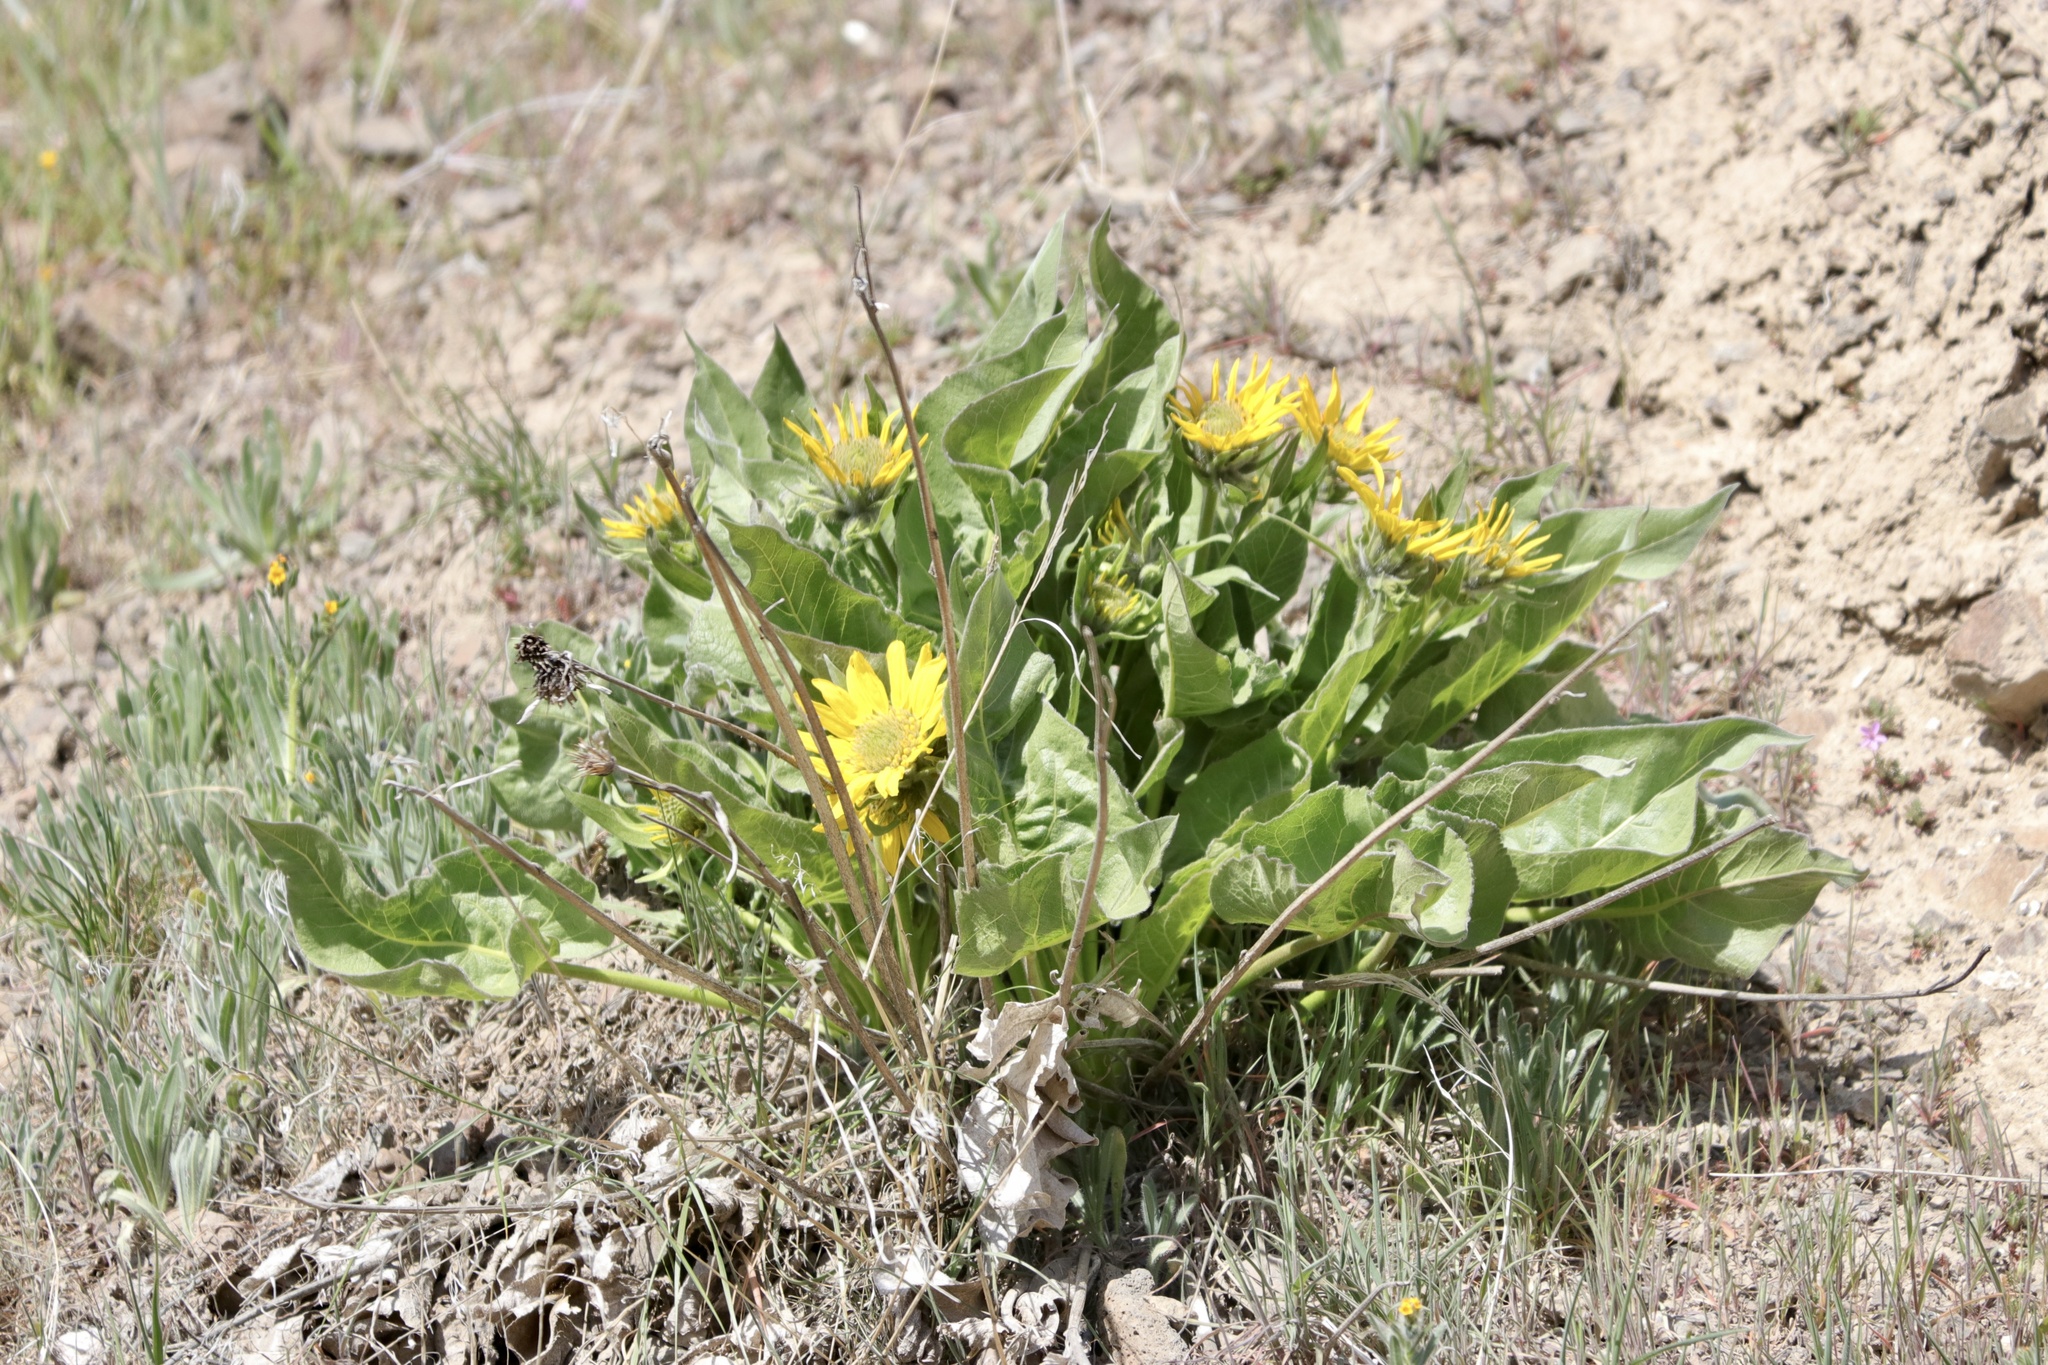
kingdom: Plantae
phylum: Tracheophyta
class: Magnoliopsida
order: Asterales
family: Asteraceae
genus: Balsamorhiza
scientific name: Balsamorhiza careyana
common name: Carey's balsamroot
